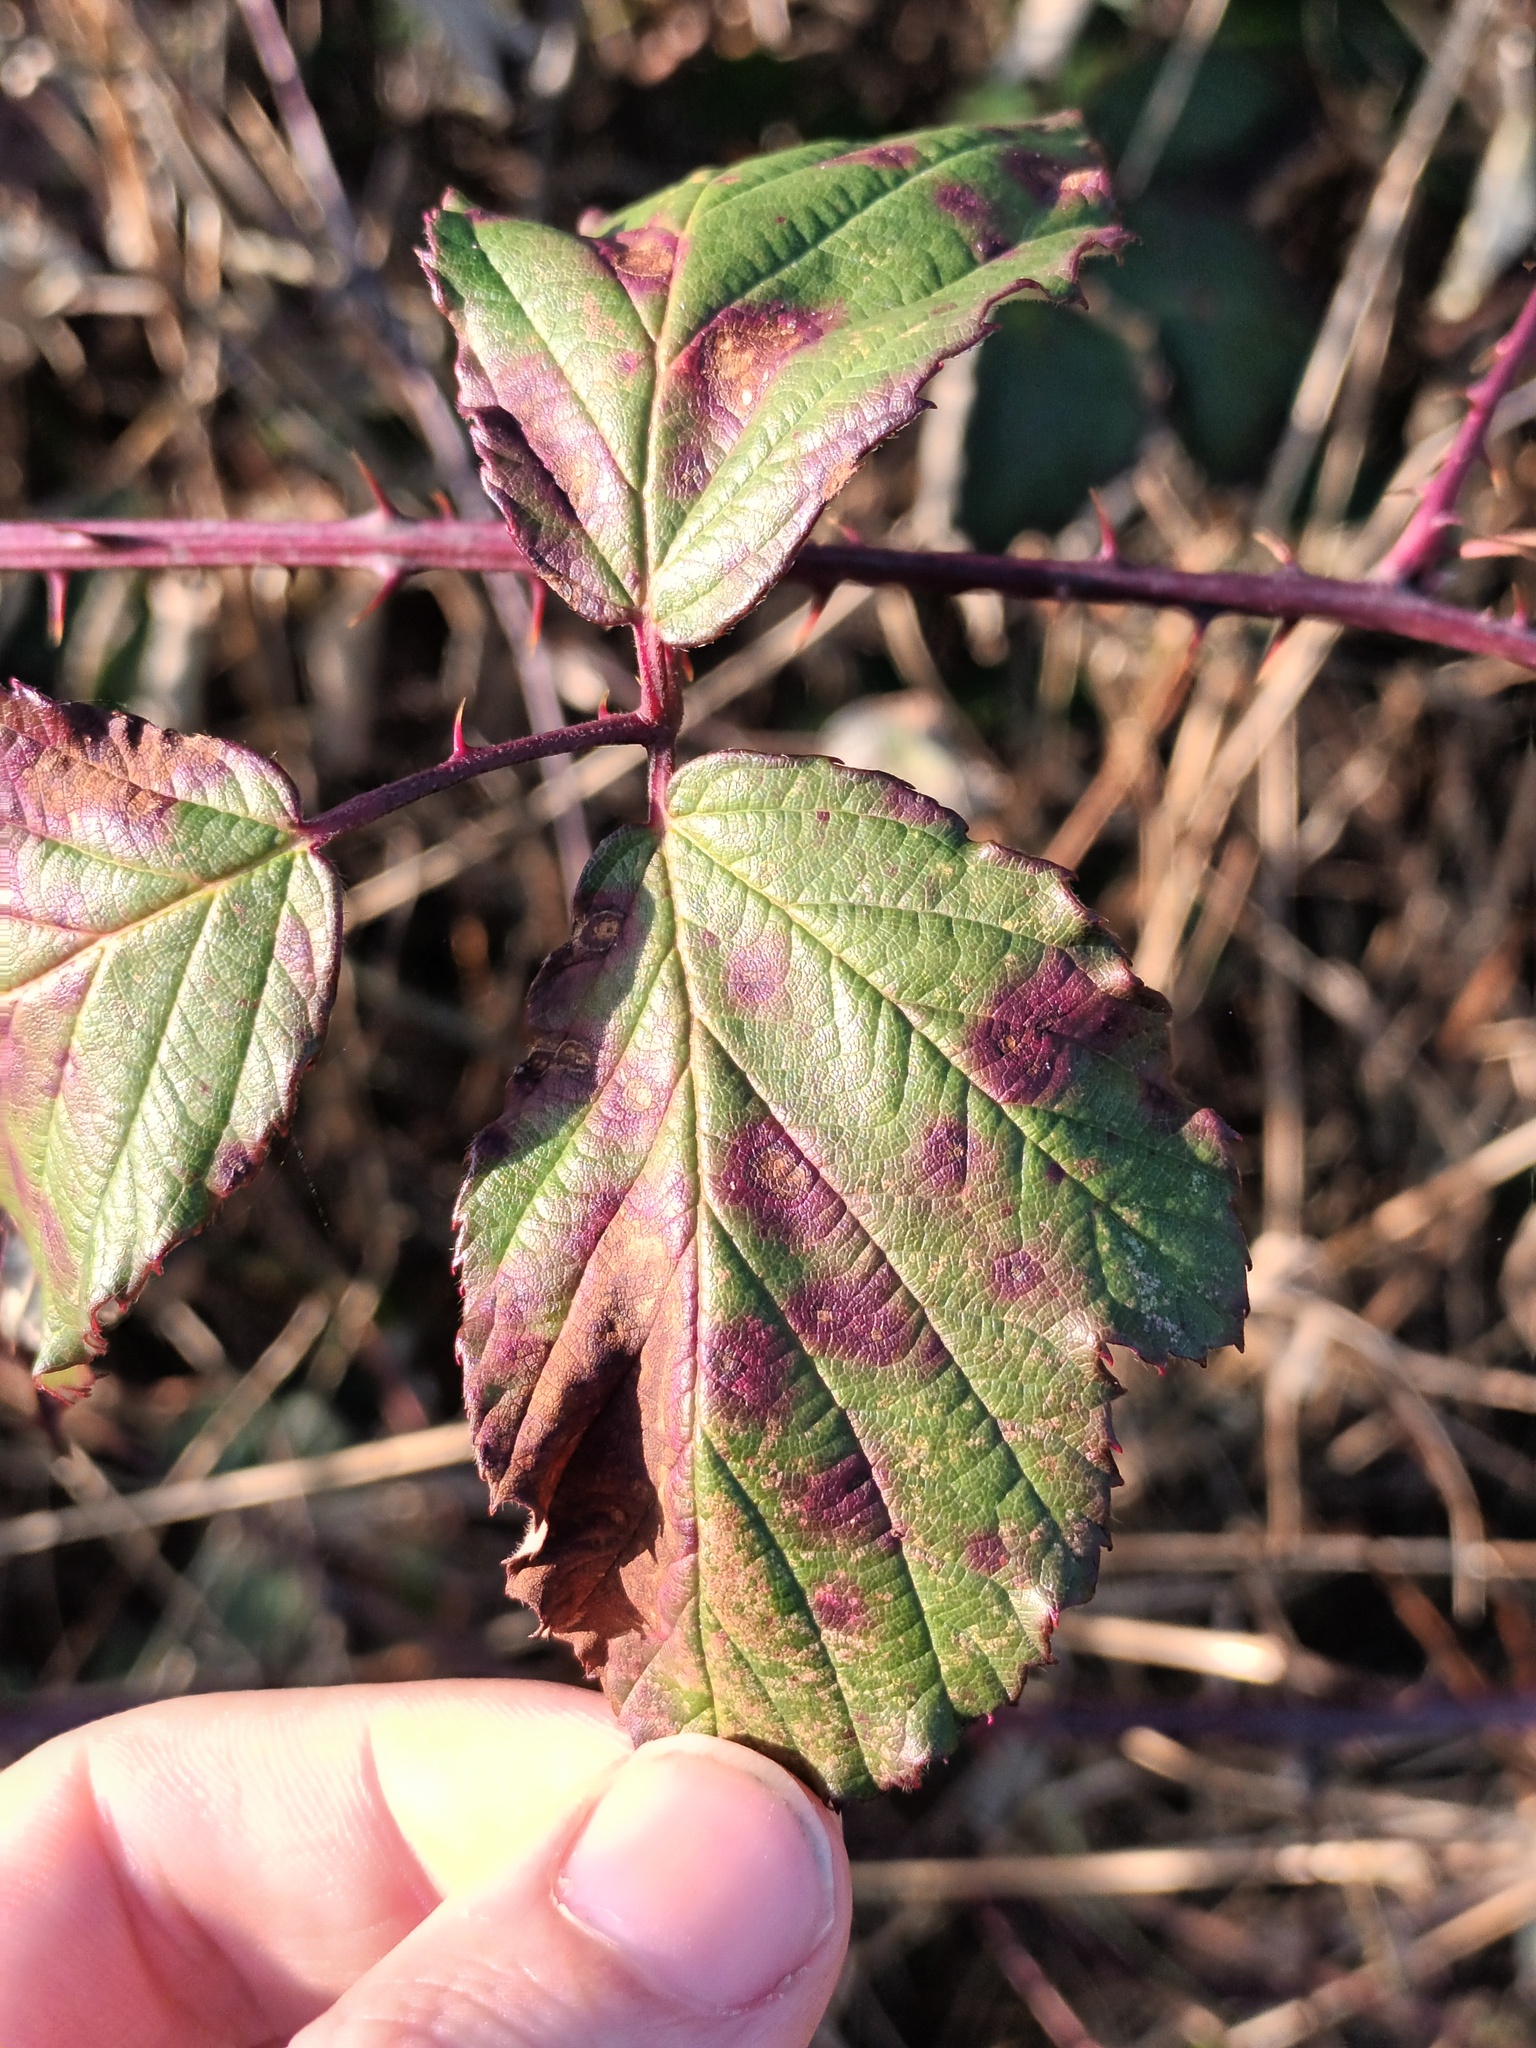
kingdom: Fungi
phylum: Basidiomycota
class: Pucciniomycetes
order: Pucciniales
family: Phragmidiaceae
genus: Phragmidium
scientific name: Phragmidium violaceum
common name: Violet bramble rust
